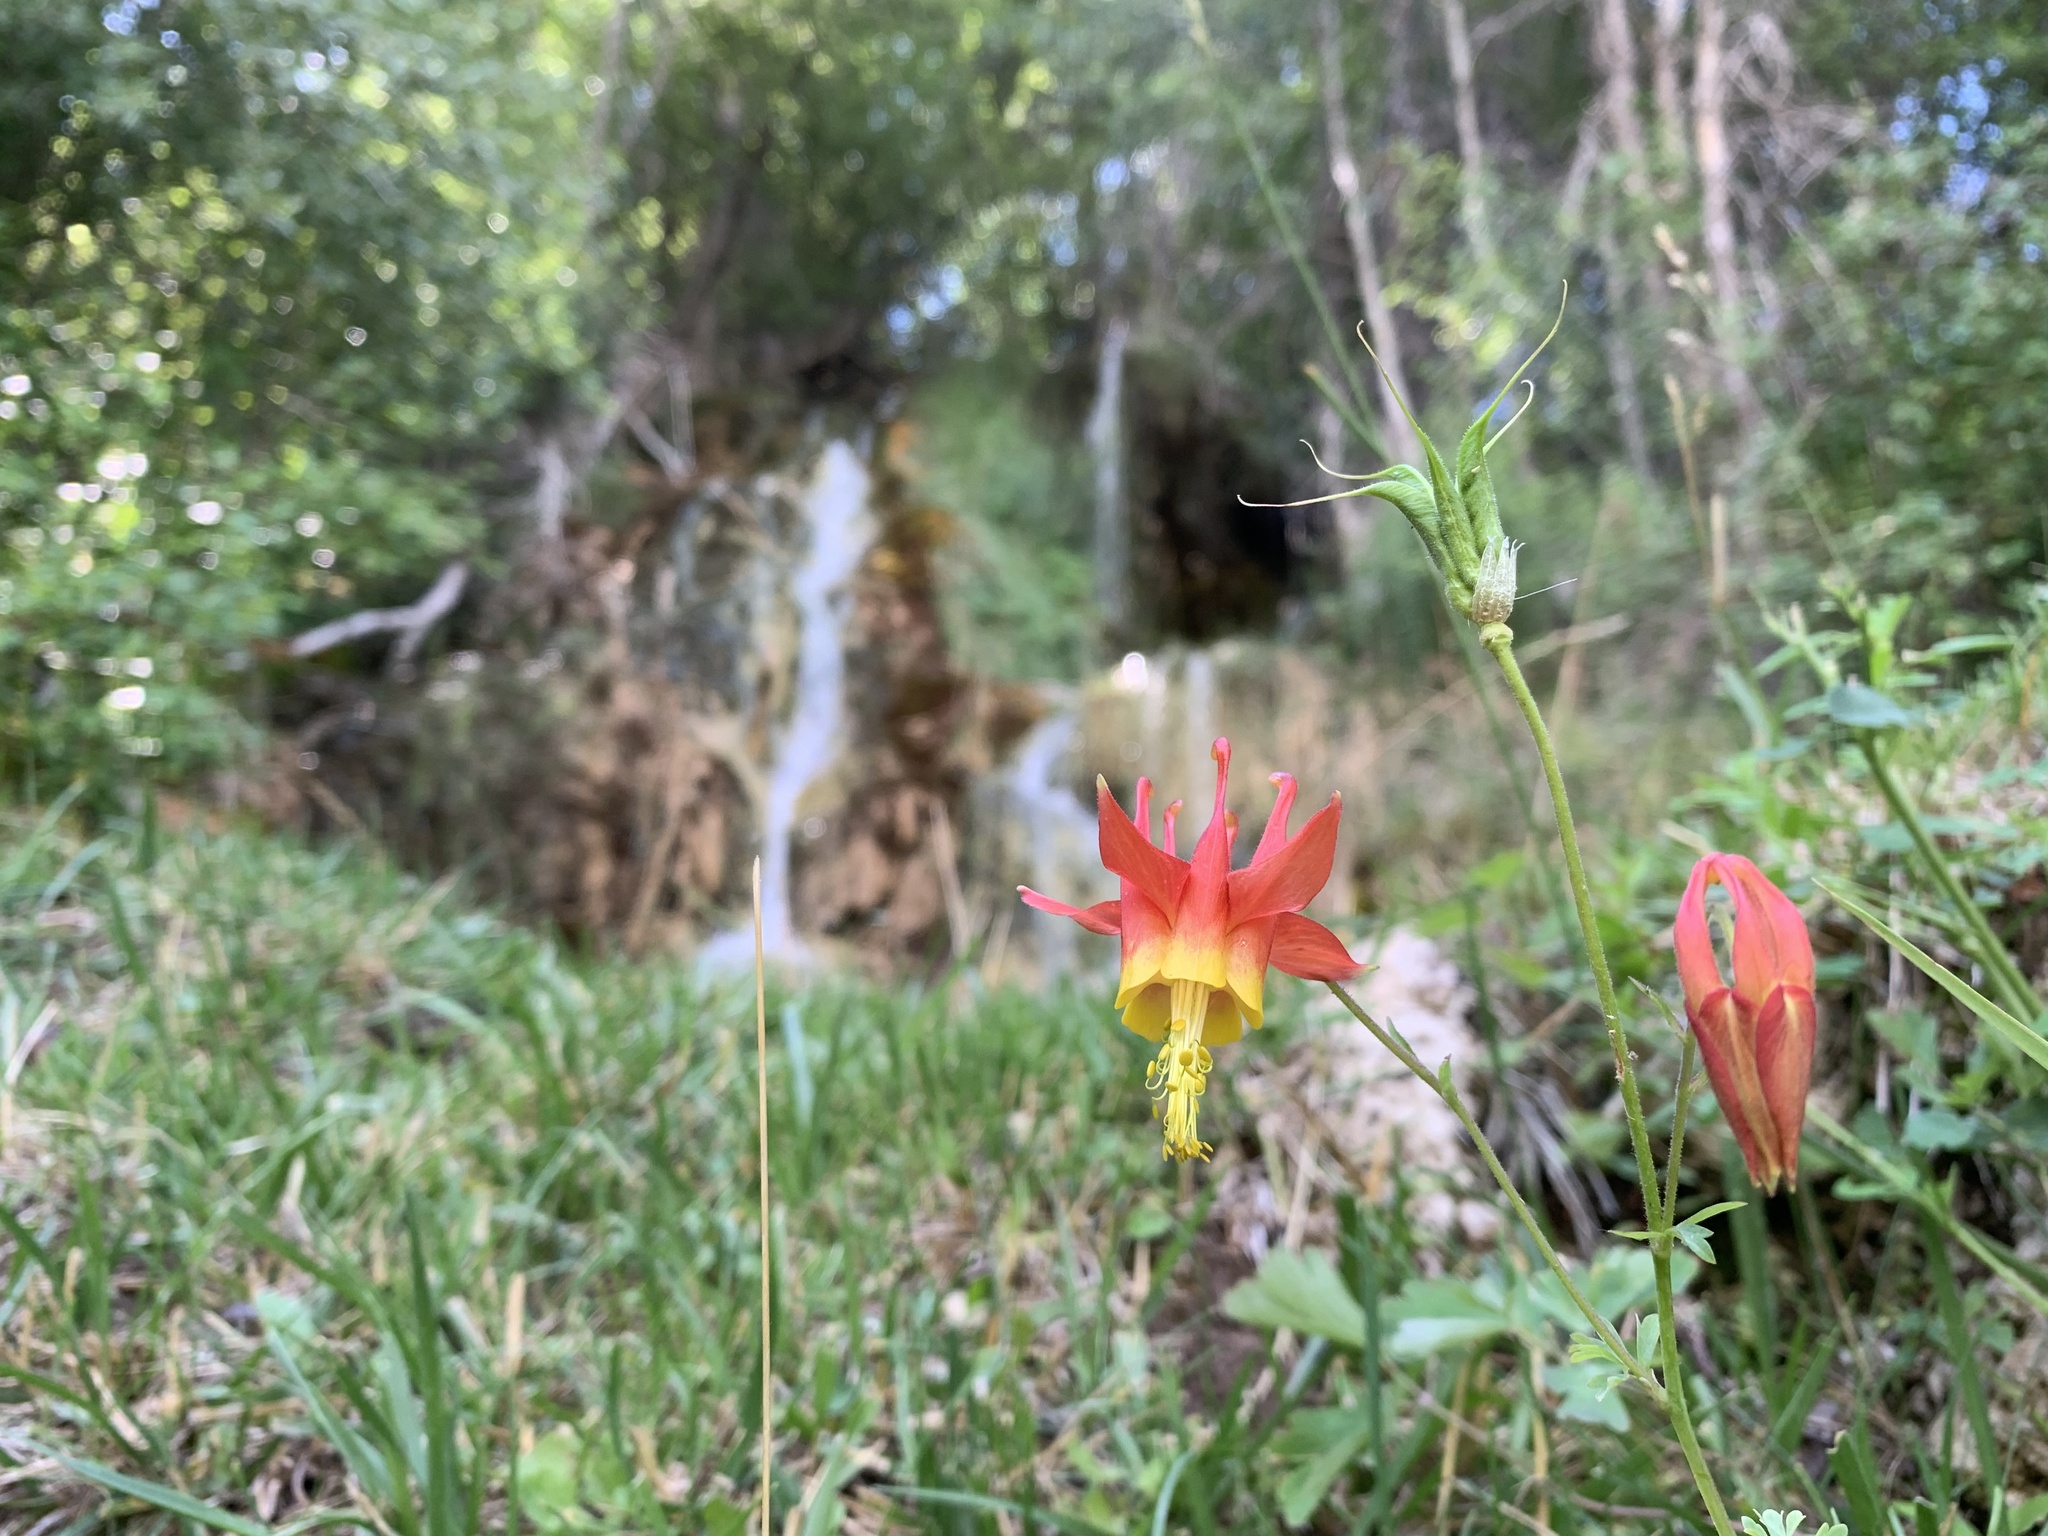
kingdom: Plantae
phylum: Tracheophyta
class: Magnoliopsida
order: Ranunculales
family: Ranunculaceae
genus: Aquilegia
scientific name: Aquilegia formosa
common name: Sitka columbine
